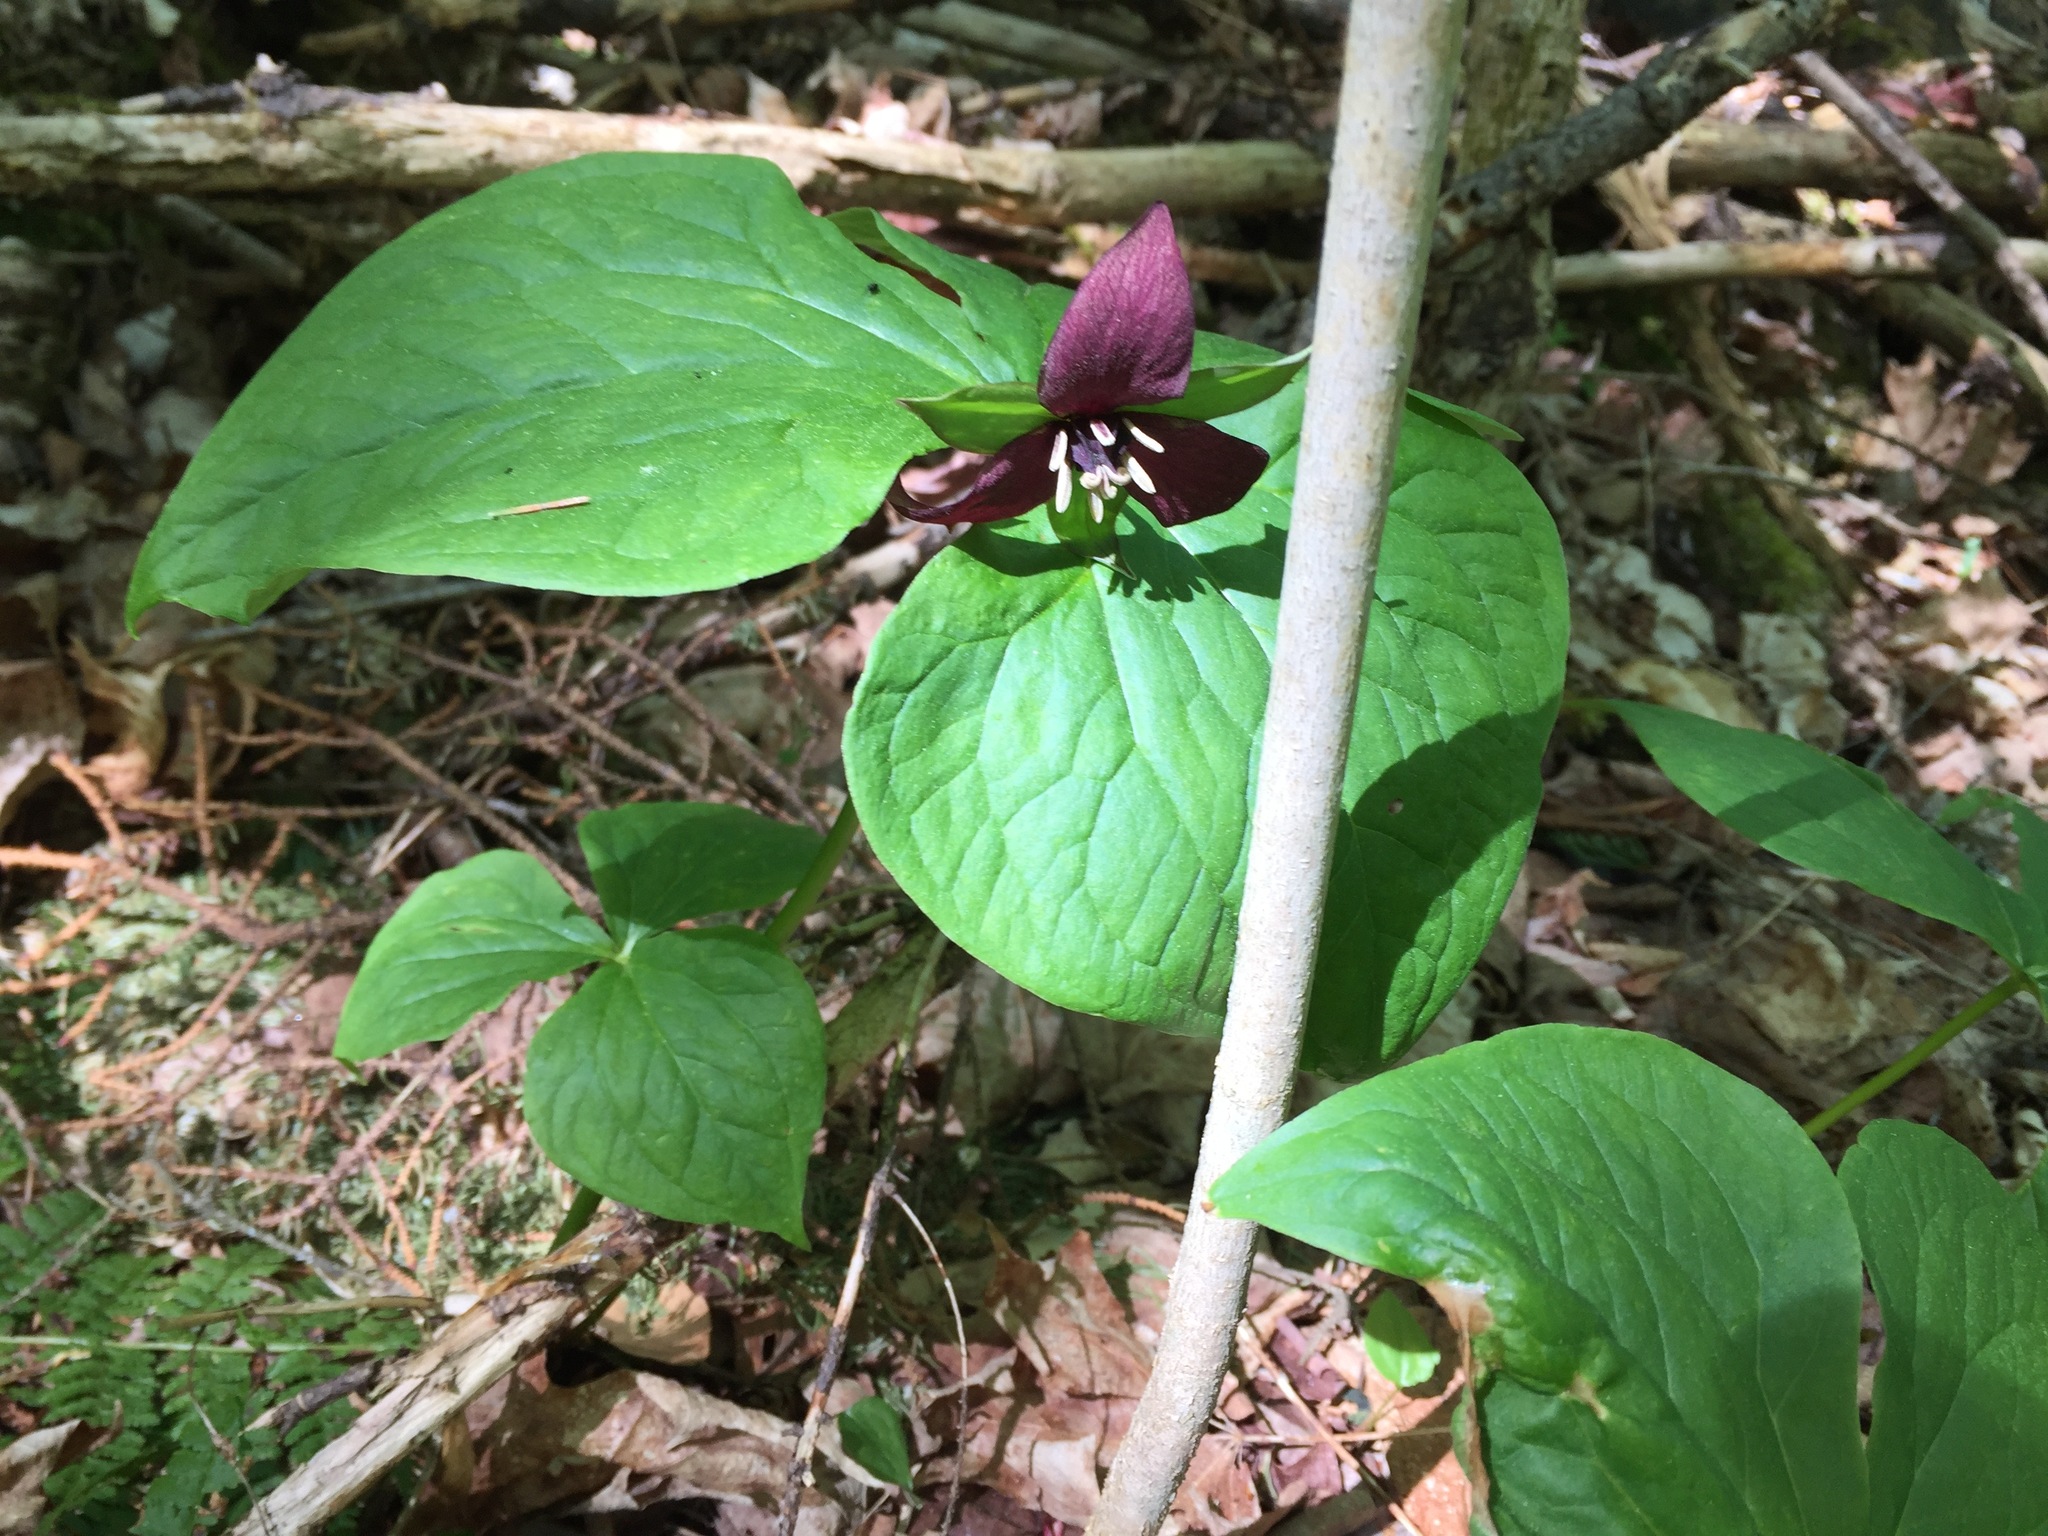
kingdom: Plantae
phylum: Tracheophyta
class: Liliopsida
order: Liliales
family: Melanthiaceae
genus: Trillium
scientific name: Trillium erectum
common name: Purple trillium
